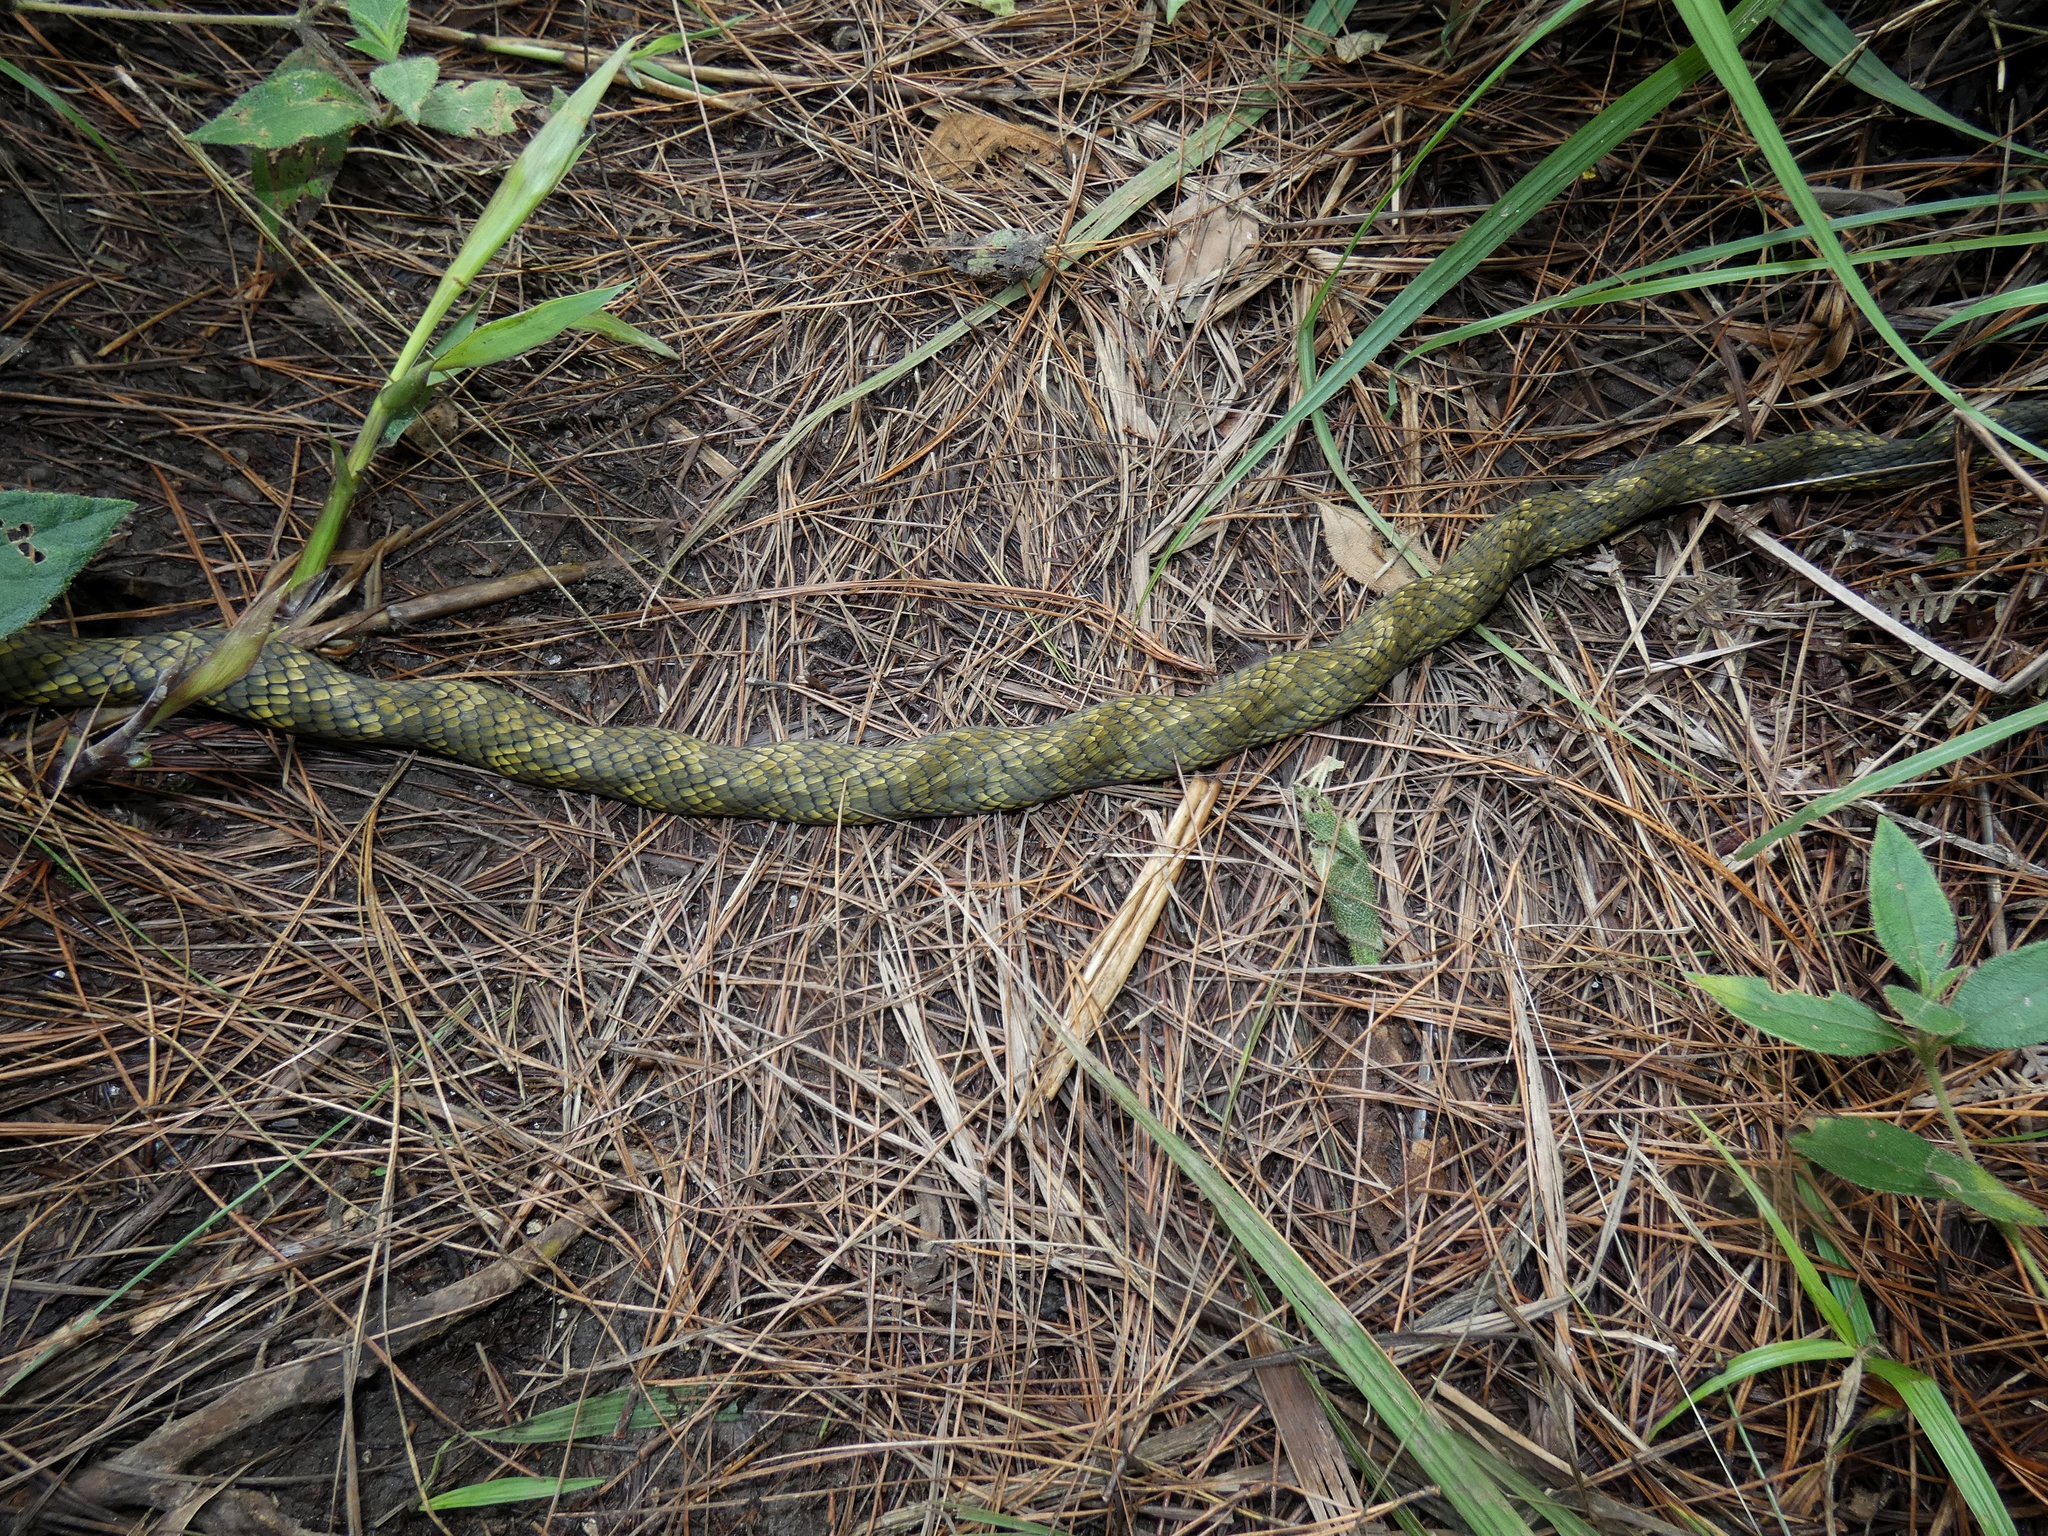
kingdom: Animalia
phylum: Chordata
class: Squamata
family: Colubridae
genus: Phrynonax
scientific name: Phrynonax poecilonotus
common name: Puffing snake
